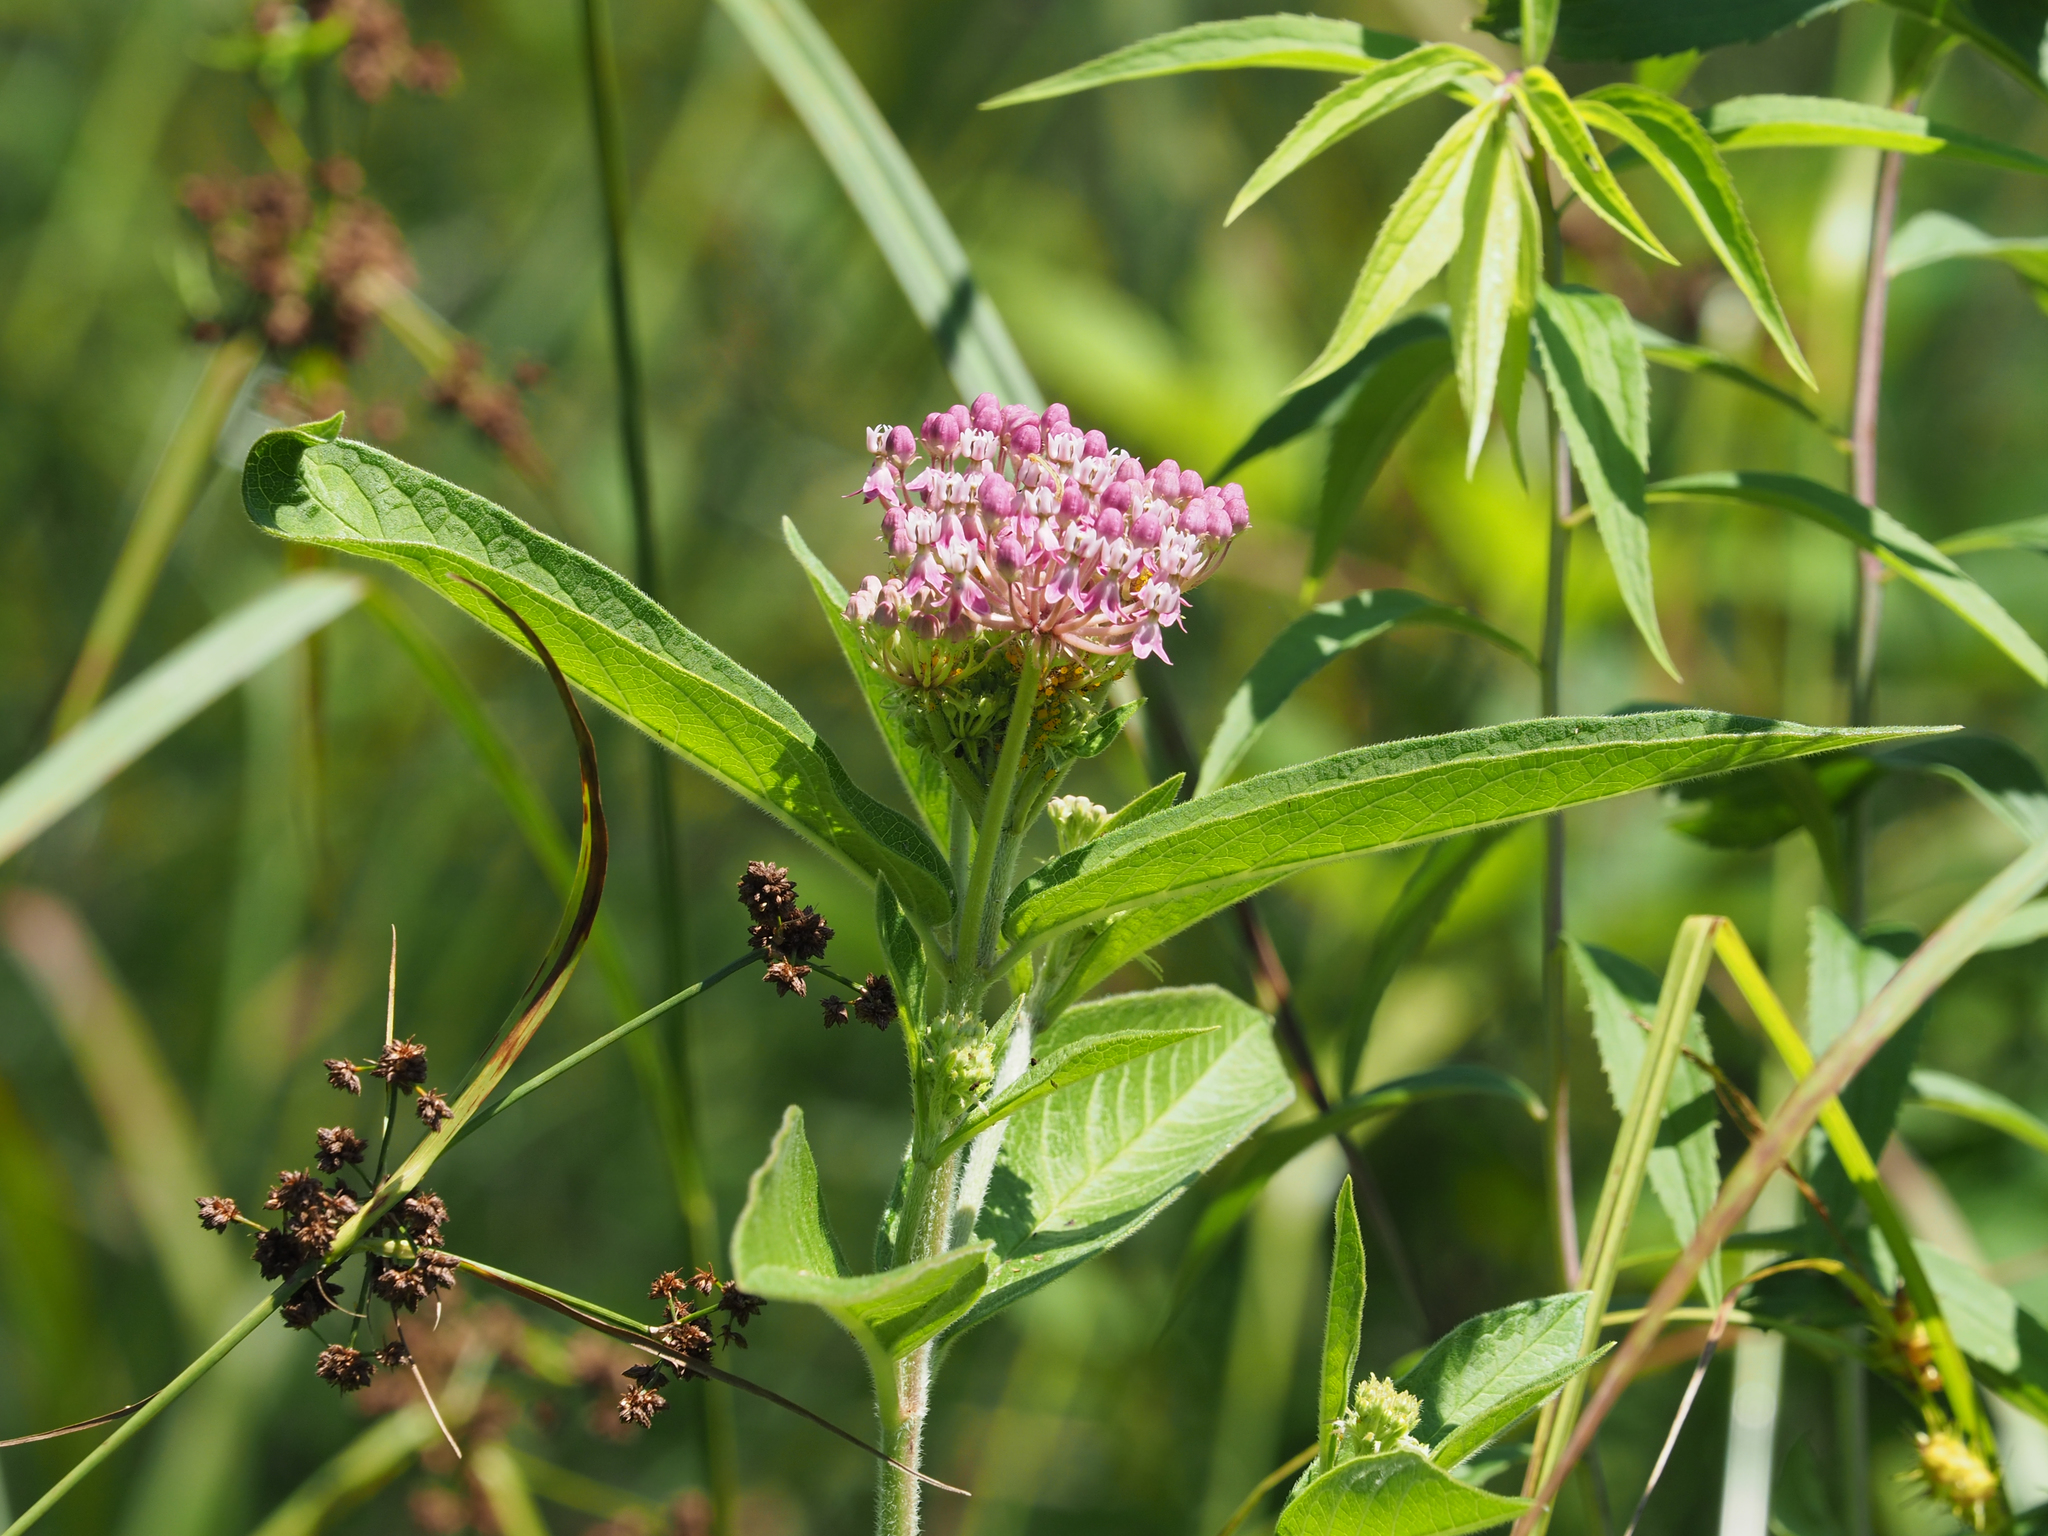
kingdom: Plantae
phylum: Tracheophyta
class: Magnoliopsida
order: Gentianales
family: Apocynaceae
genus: Asclepias
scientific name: Asclepias incarnata
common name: Swamp milkweed
